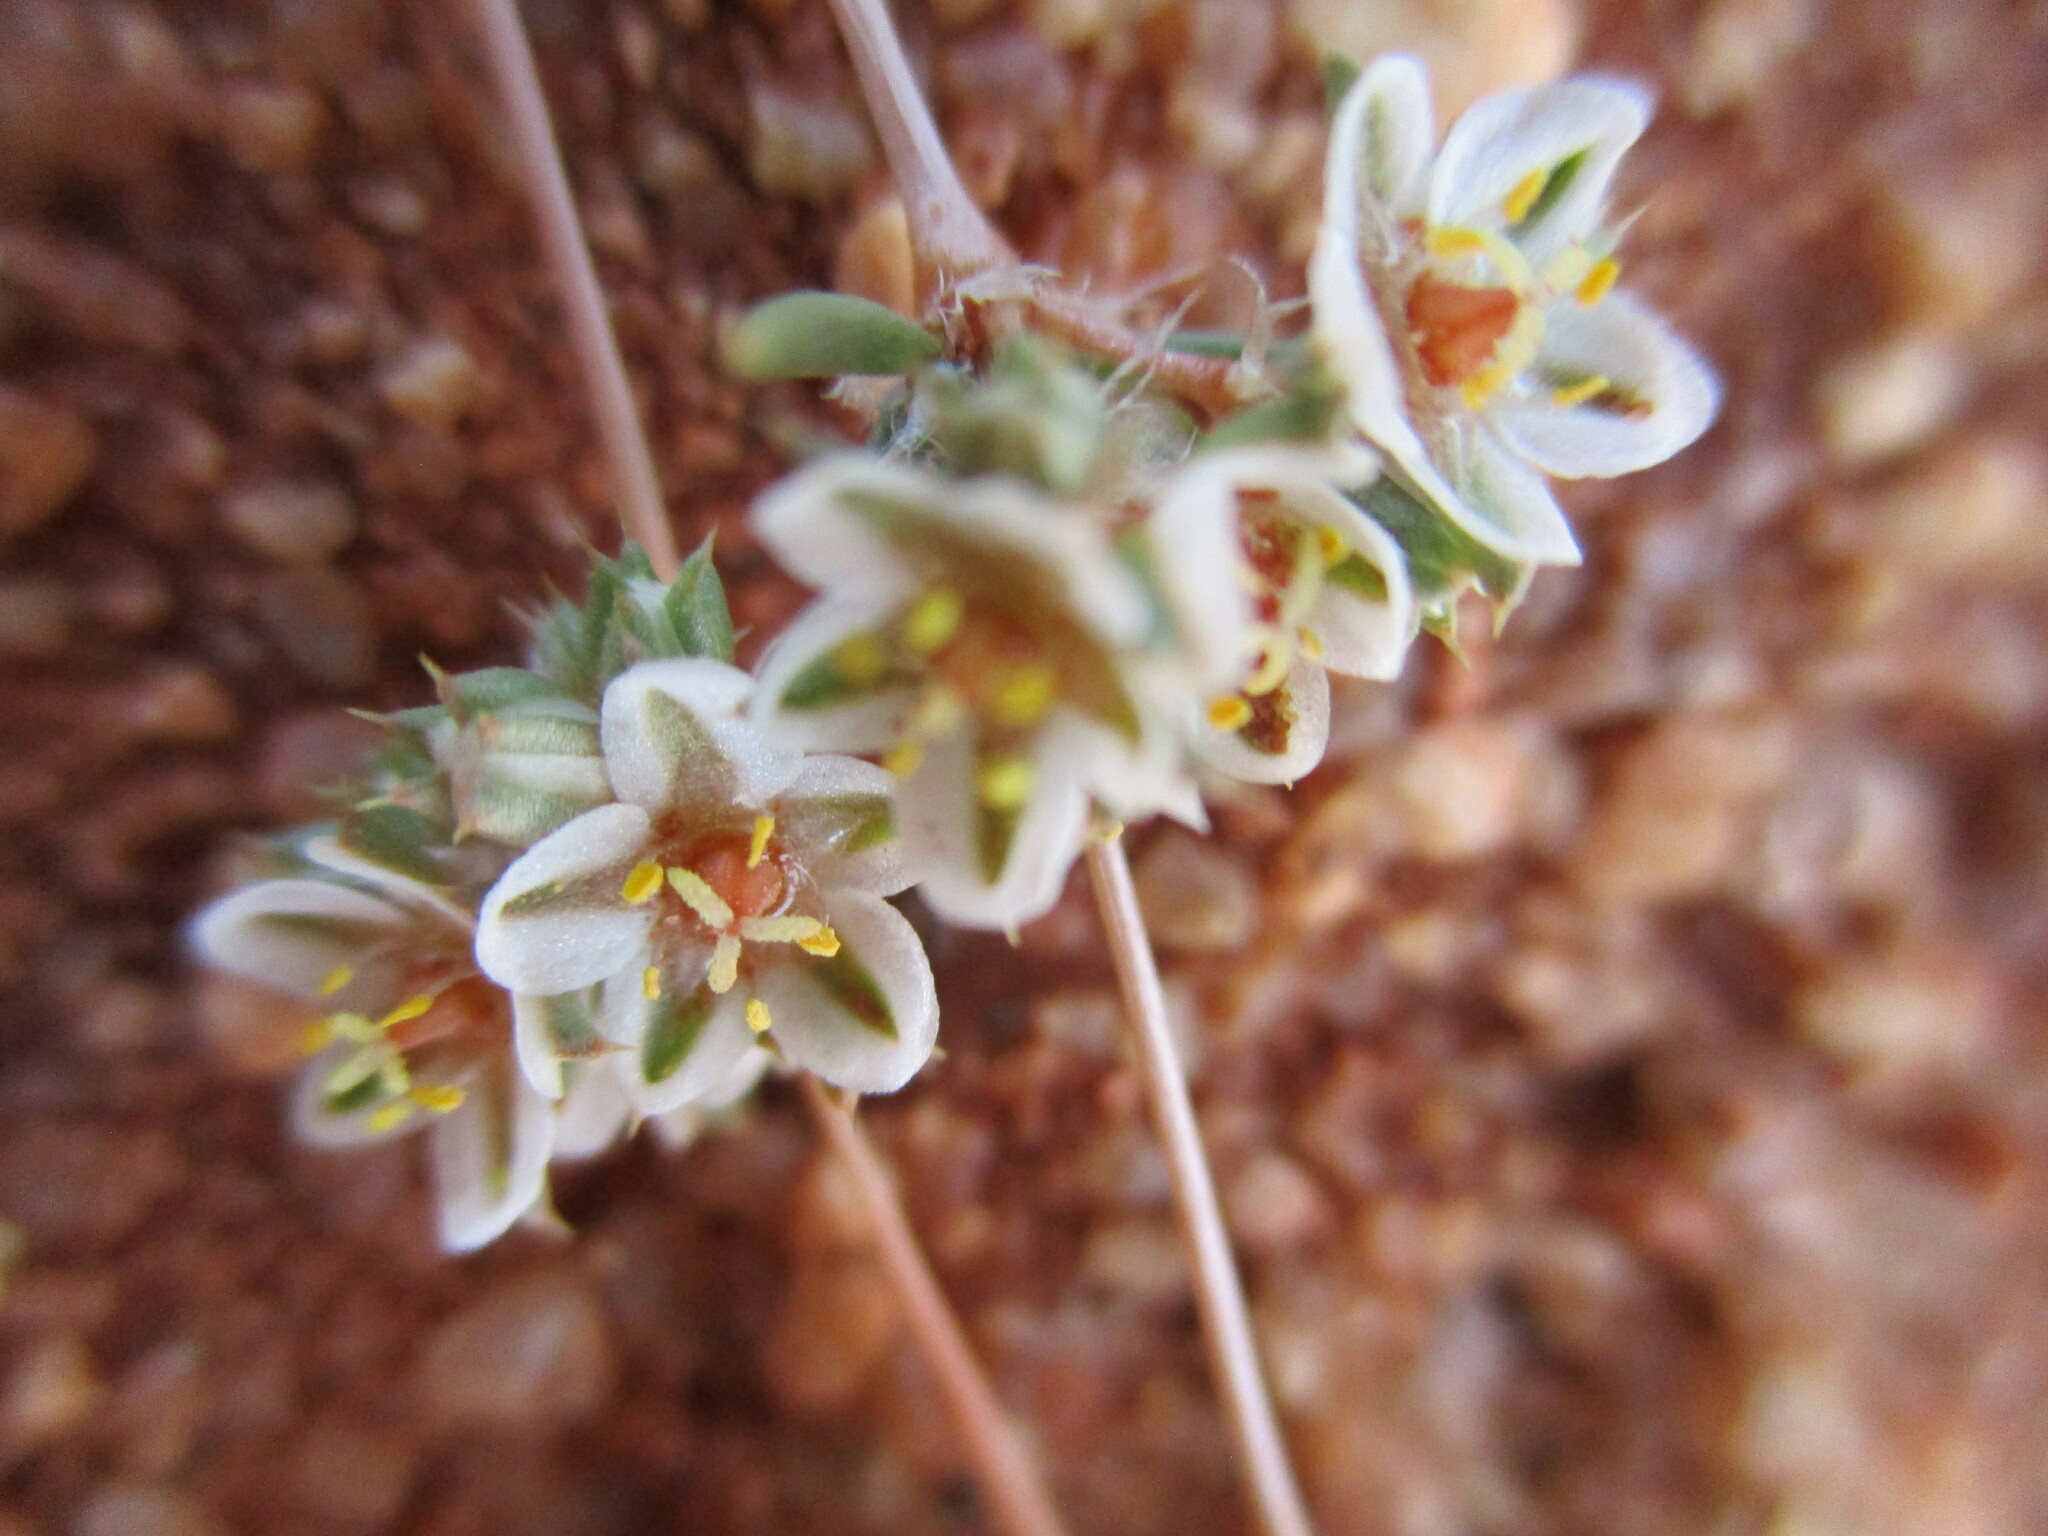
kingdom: Plantae
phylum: Tracheophyta
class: Magnoliopsida
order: Caryophyllales
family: Molluginaceae
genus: Suessenguthiella
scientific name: Suessenguthiella scleranthoides
